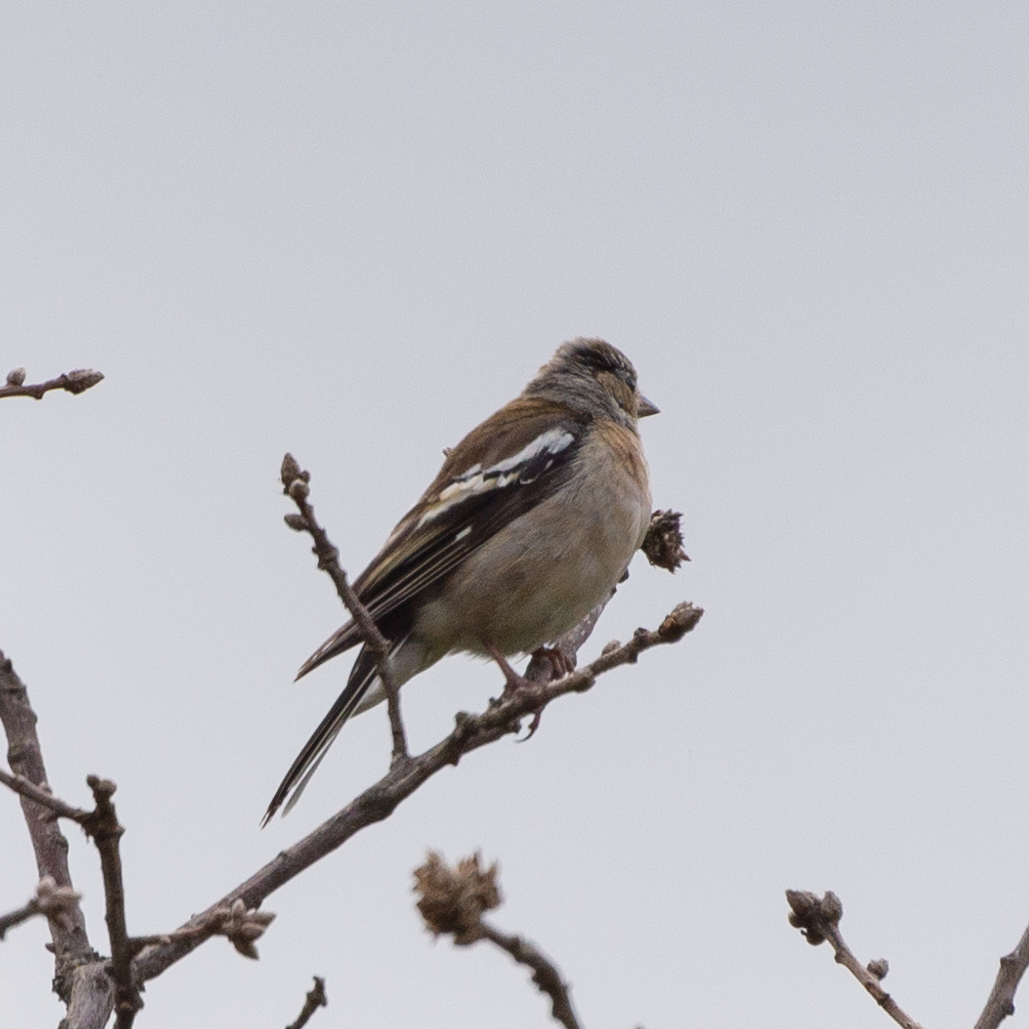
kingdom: Animalia
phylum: Chordata
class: Aves
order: Passeriformes
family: Fringillidae
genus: Fringilla
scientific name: Fringilla coelebs
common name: Common chaffinch
